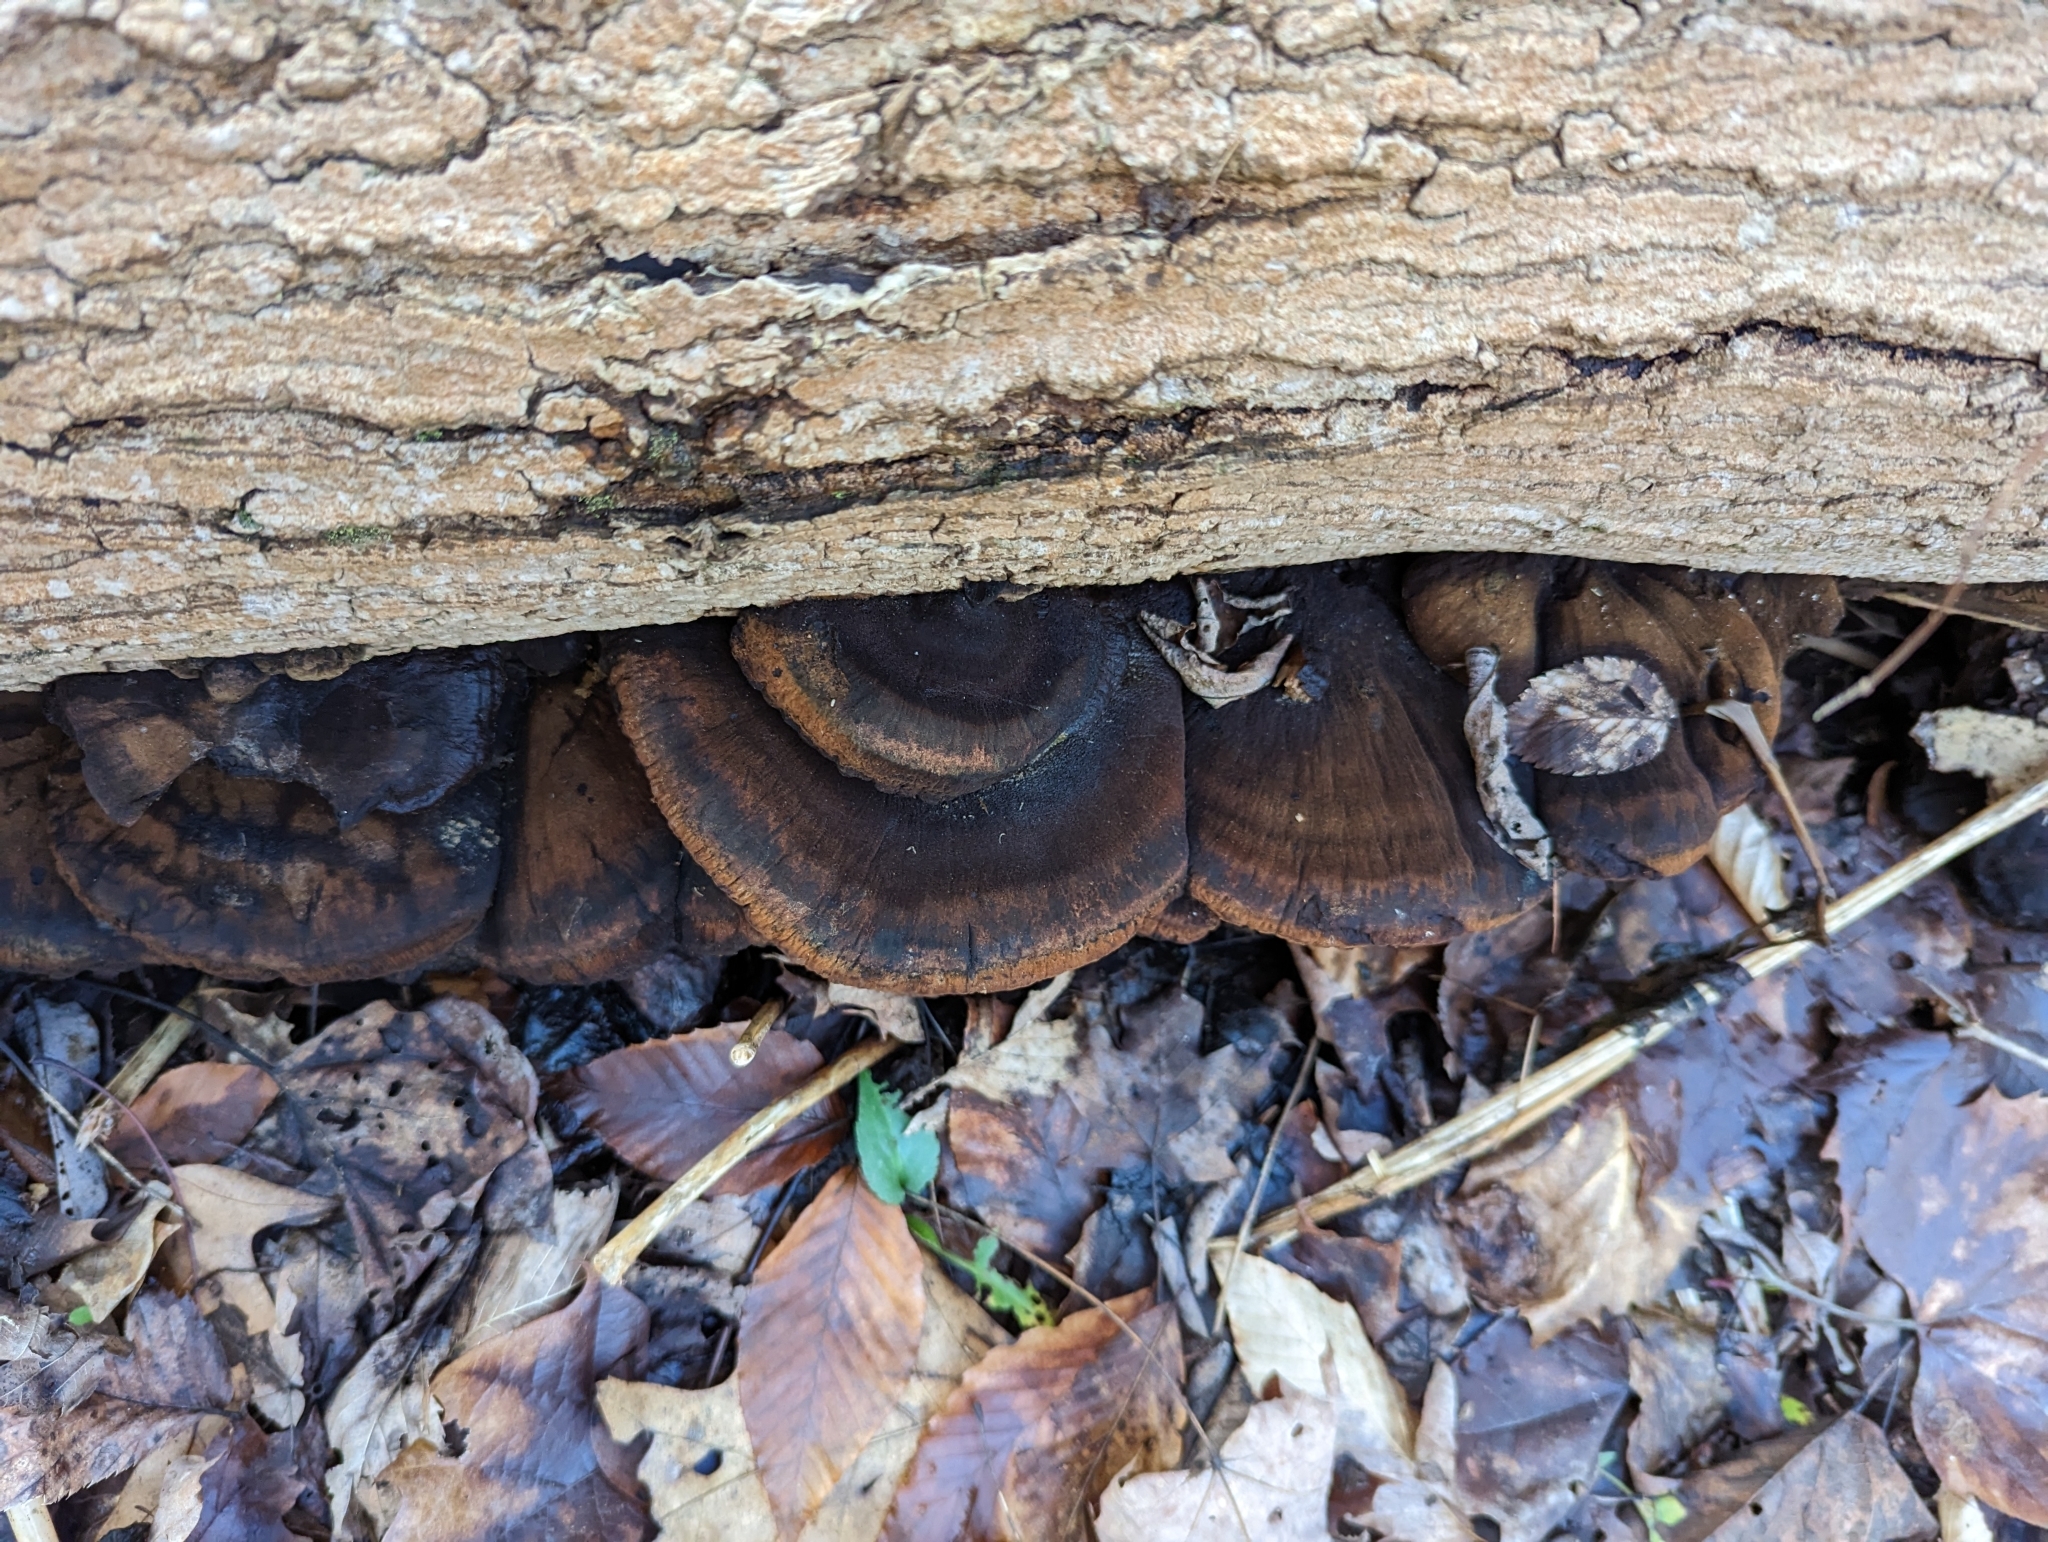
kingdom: Fungi
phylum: Basidiomycota
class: Agaricomycetes
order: Polyporales
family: Ischnodermataceae
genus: Ischnoderma
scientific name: Ischnoderma benzoinum
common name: Benzoin bracket
